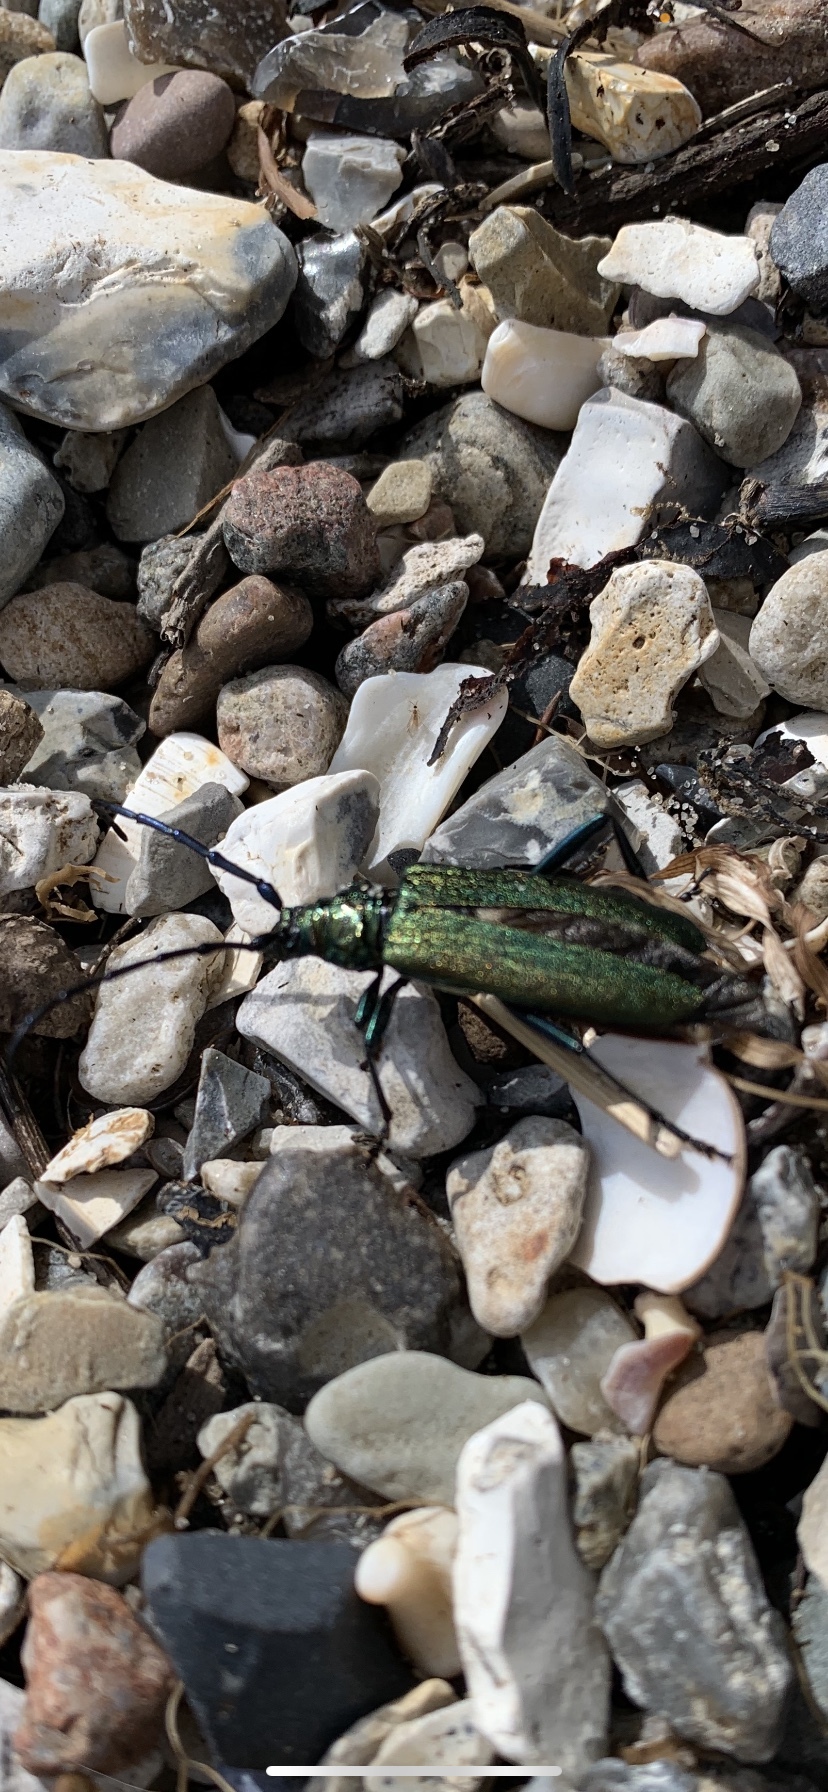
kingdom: Animalia
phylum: Arthropoda
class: Insecta
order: Coleoptera
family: Cerambycidae
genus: Aromia
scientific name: Aromia moschata
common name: Musk beetle
